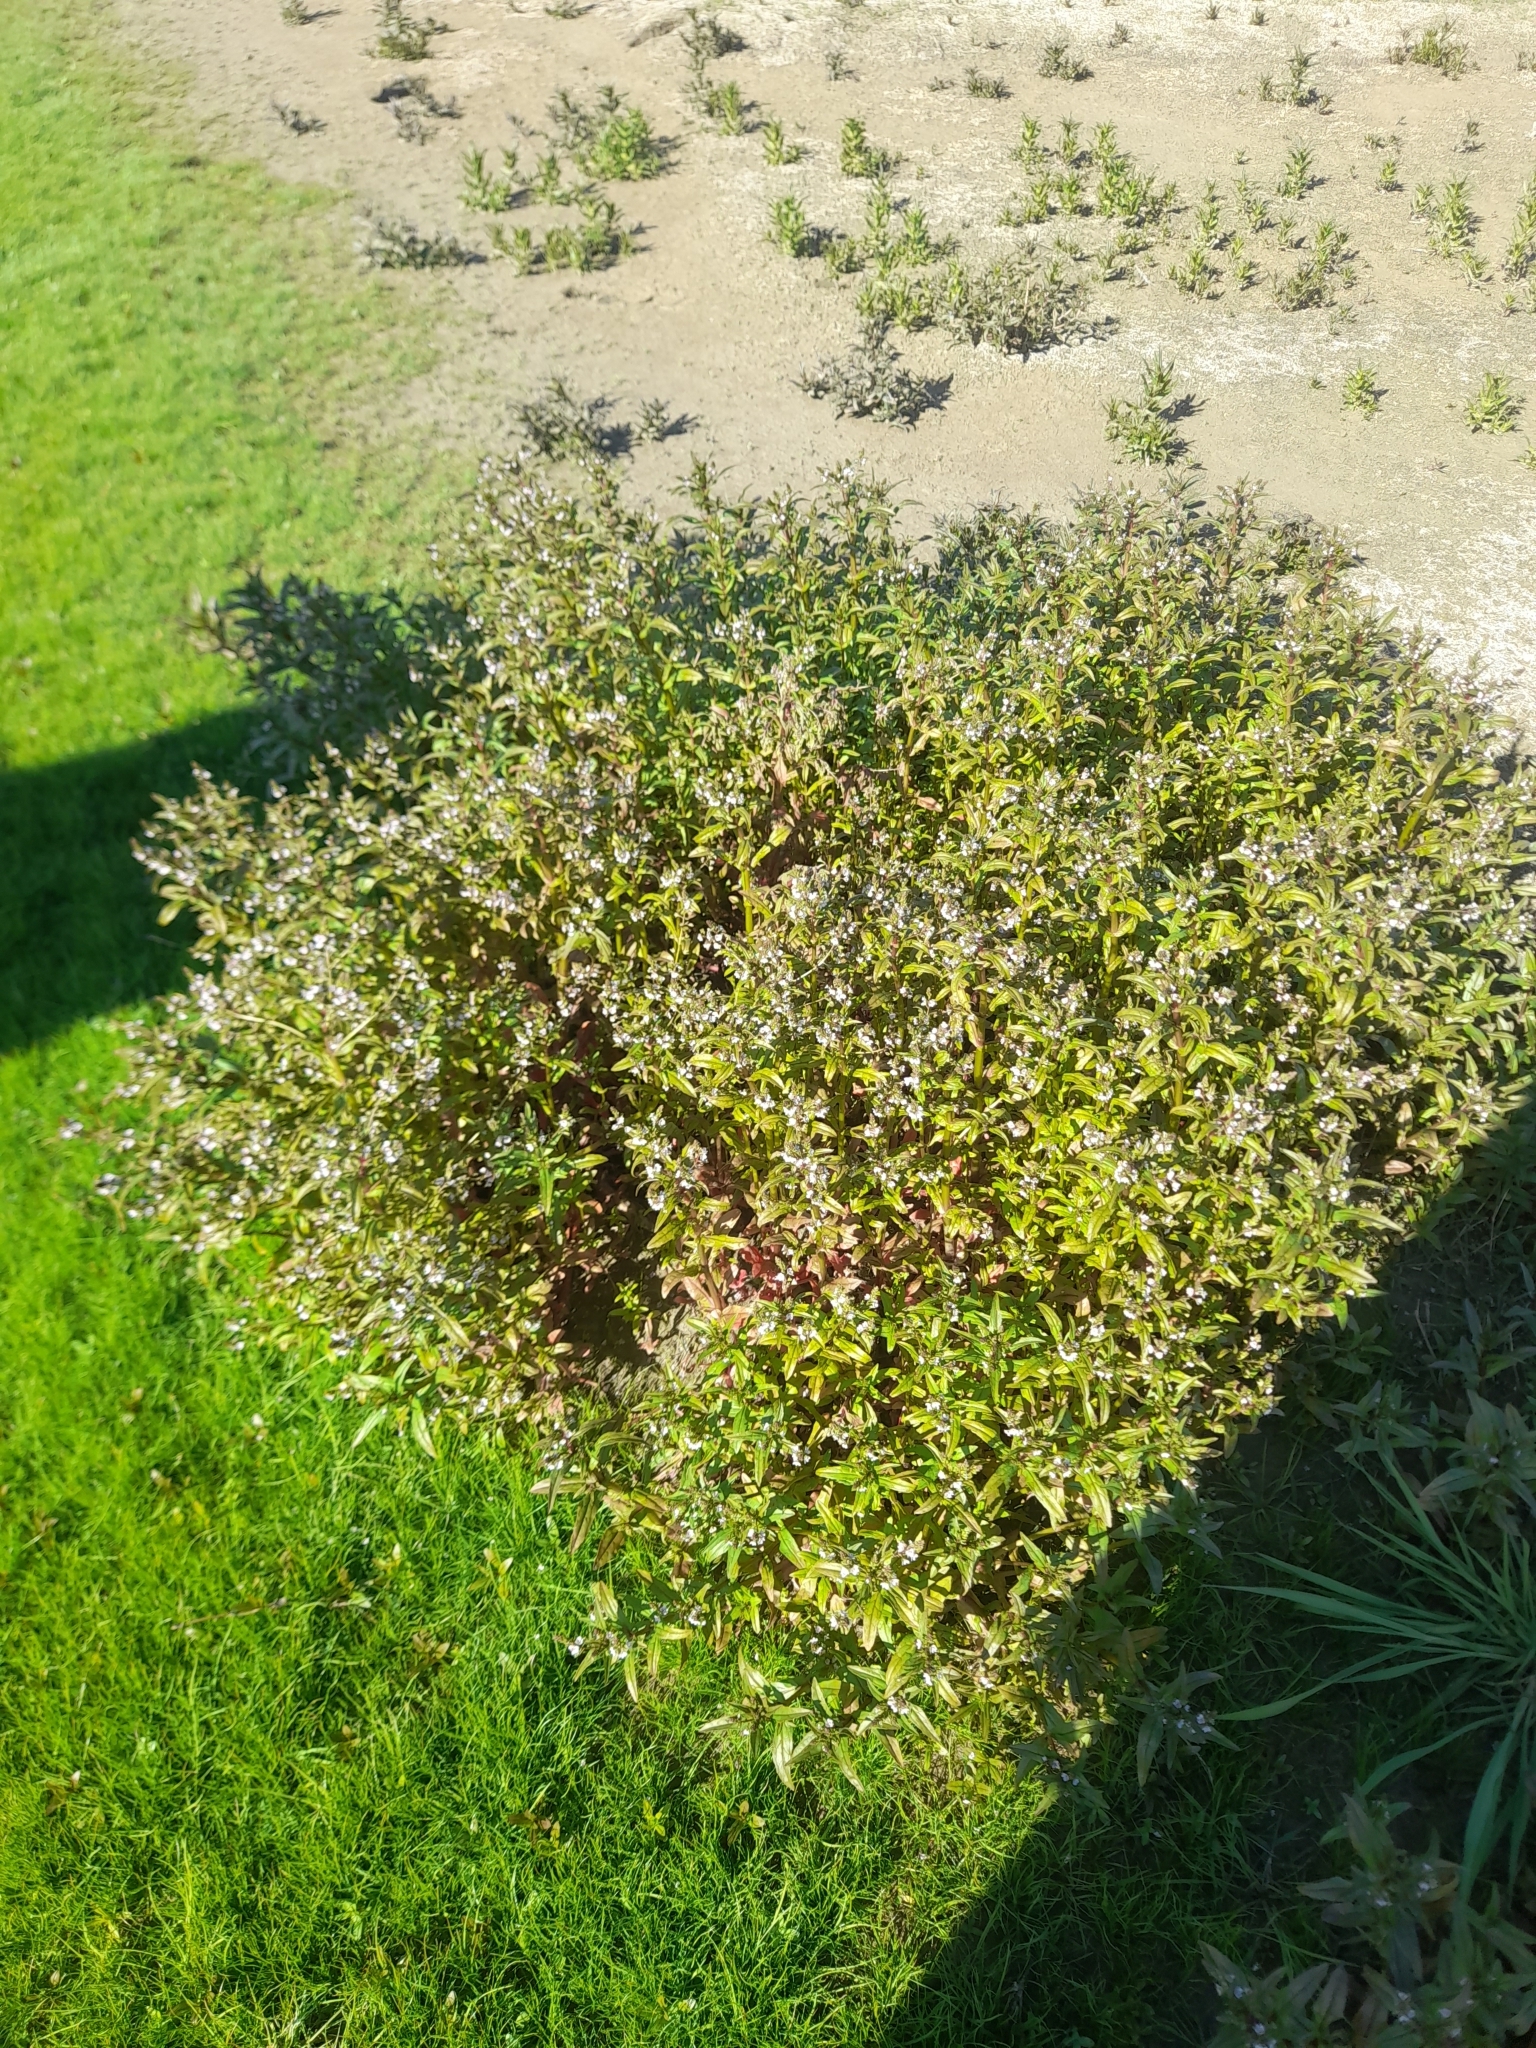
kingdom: Plantae
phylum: Tracheophyta
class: Magnoliopsida
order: Lamiales
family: Plantaginaceae
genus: Veronica
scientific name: Veronica anagallis-aquatica
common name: Water speedwell
